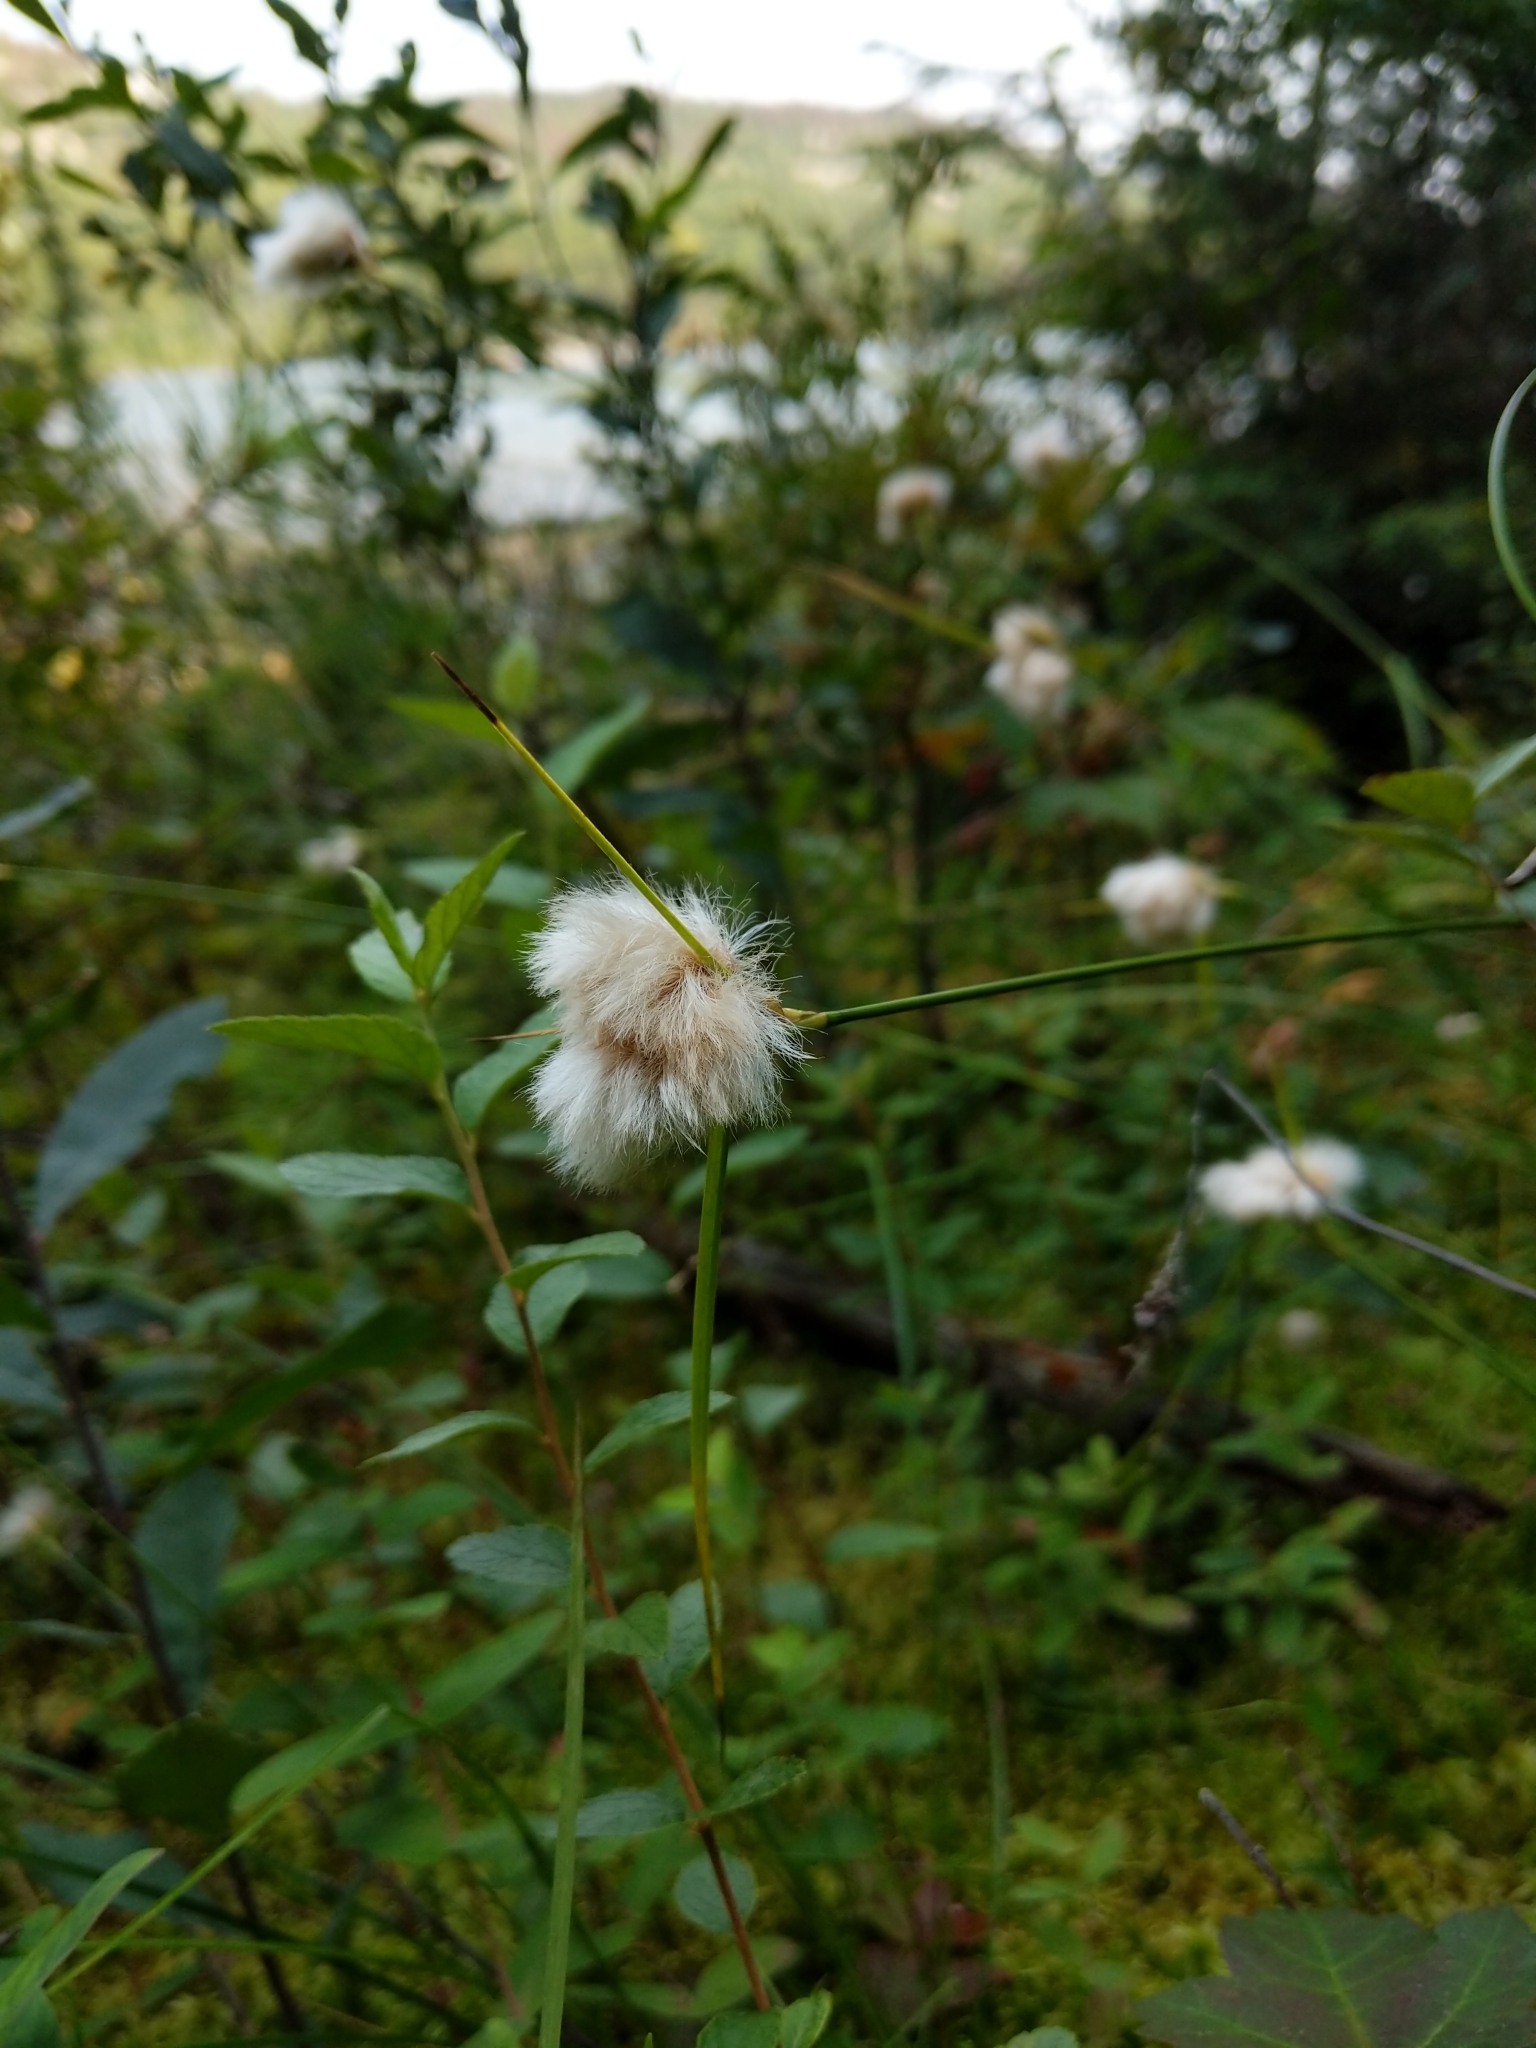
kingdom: Plantae
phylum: Tracheophyta
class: Liliopsida
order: Poales
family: Cyperaceae
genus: Eriophorum
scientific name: Eriophorum virginicum
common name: Tawny cottongrass
